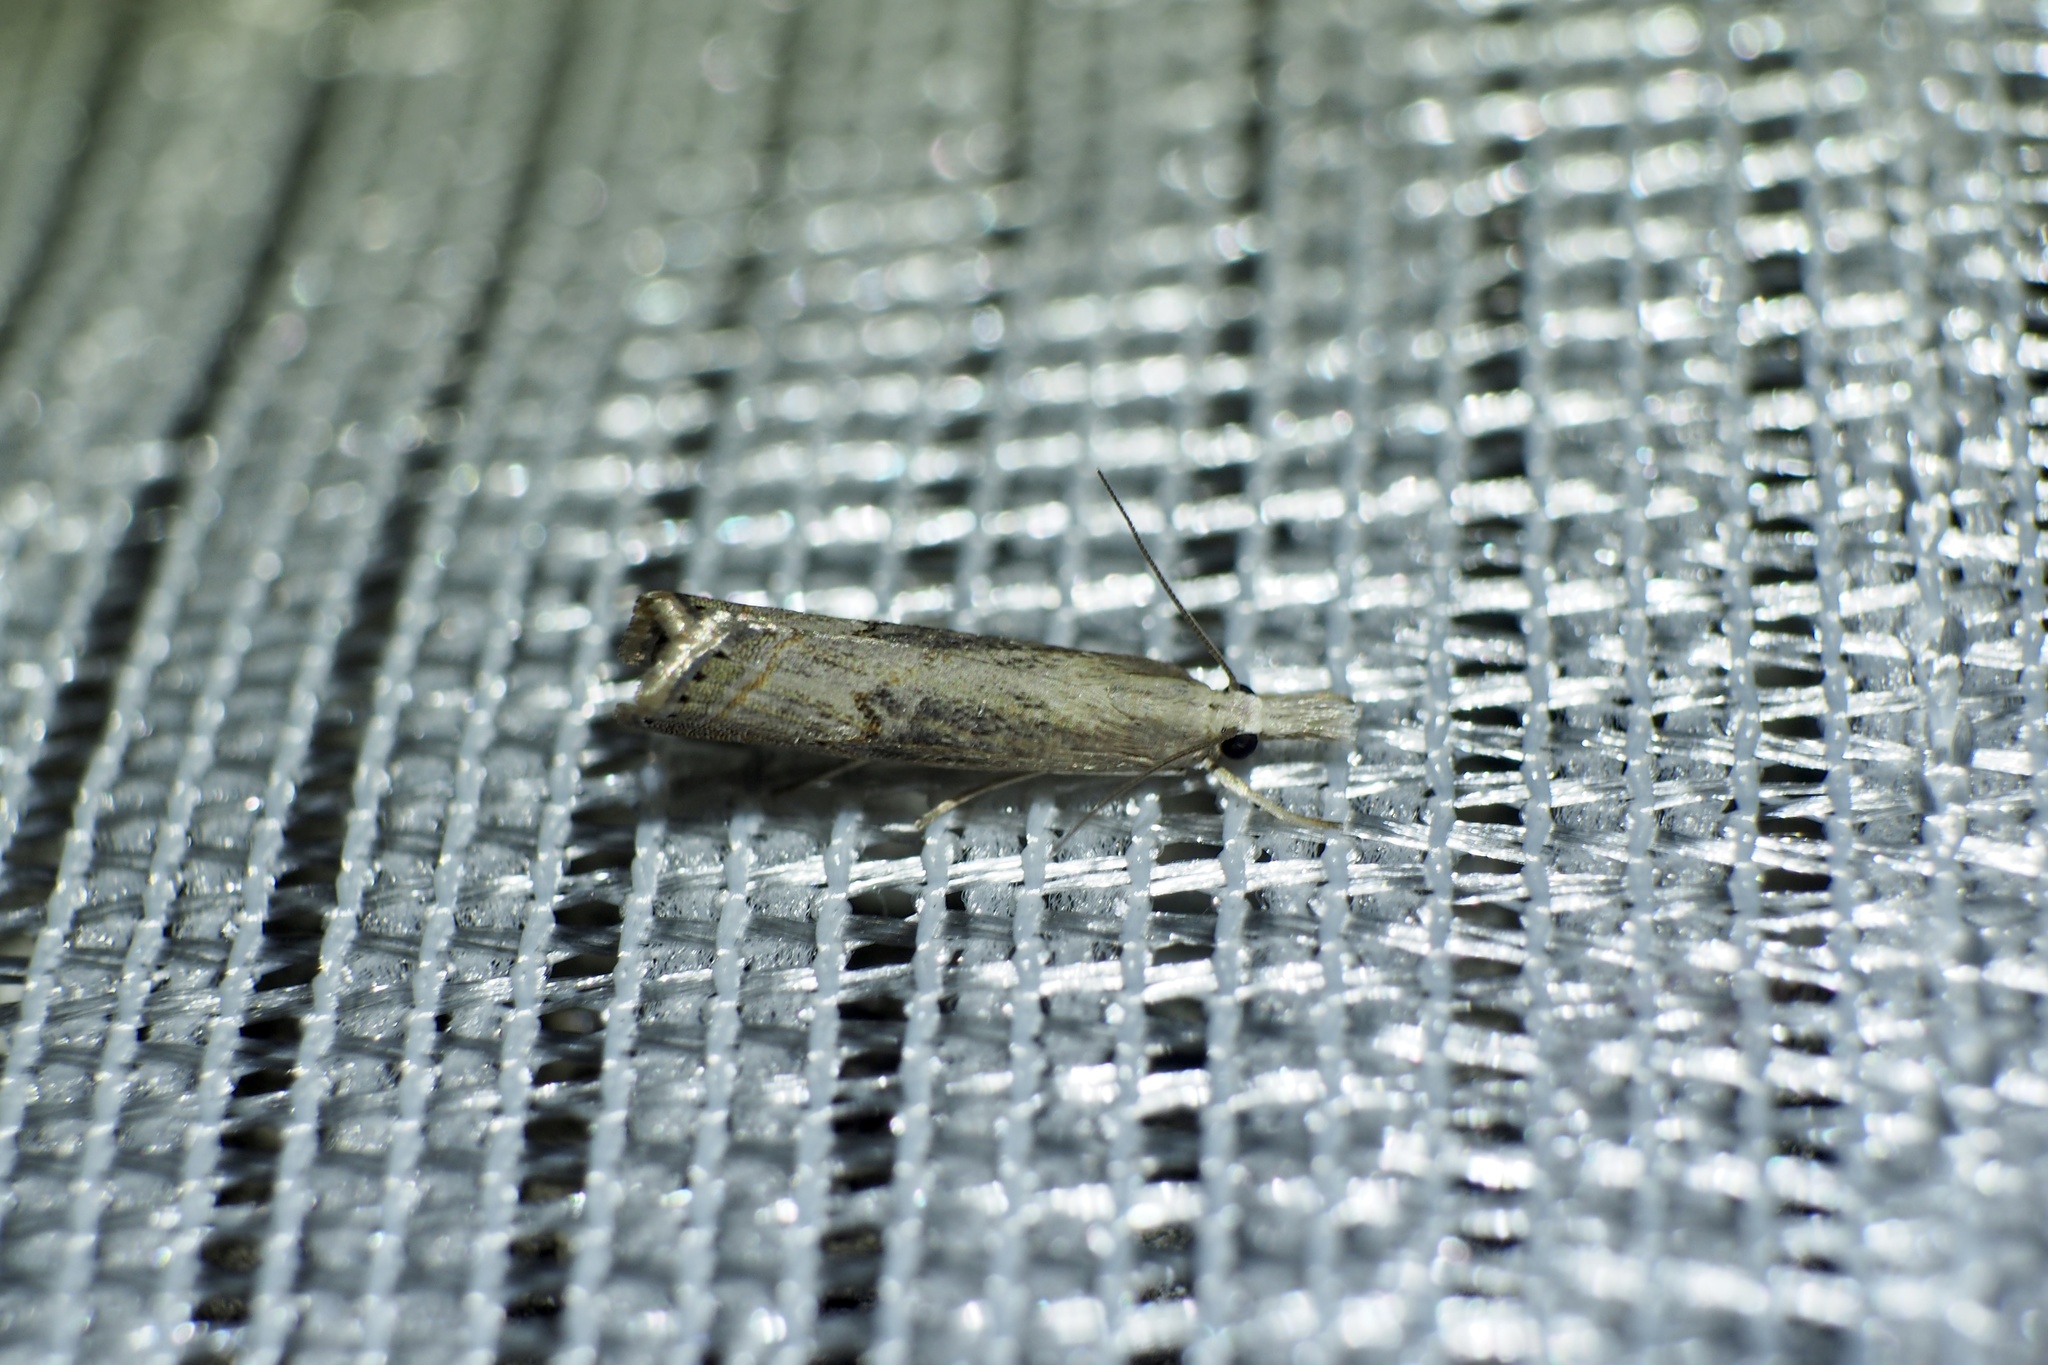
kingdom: Animalia
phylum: Arthropoda
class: Insecta
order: Lepidoptera
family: Crambidae
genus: Parapediasia
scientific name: Parapediasia teterellus
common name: Bluegrass webworm moth
